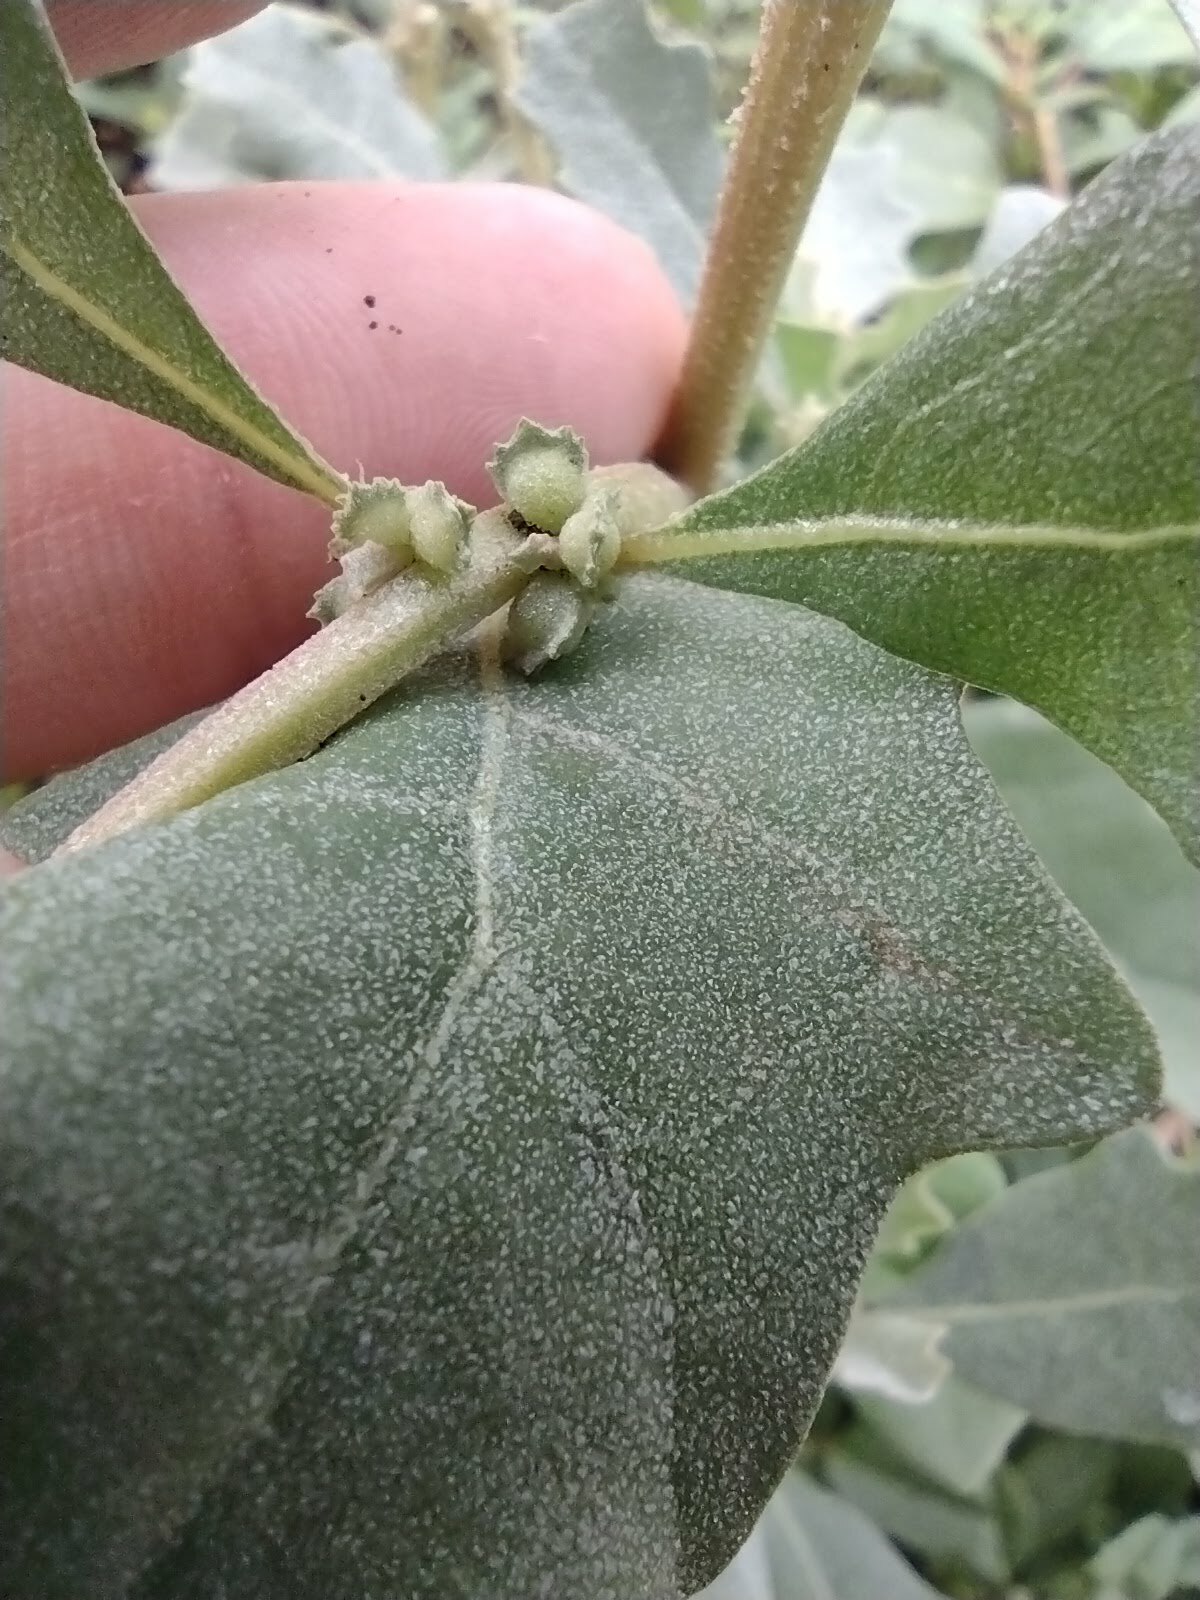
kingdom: Plantae
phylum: Tracheophyta
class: Magnoliopsida
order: Caryophyllales
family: Amaranthaceae
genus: Atriplex
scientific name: Atriplex muelleri
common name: Mueller's saltbush
